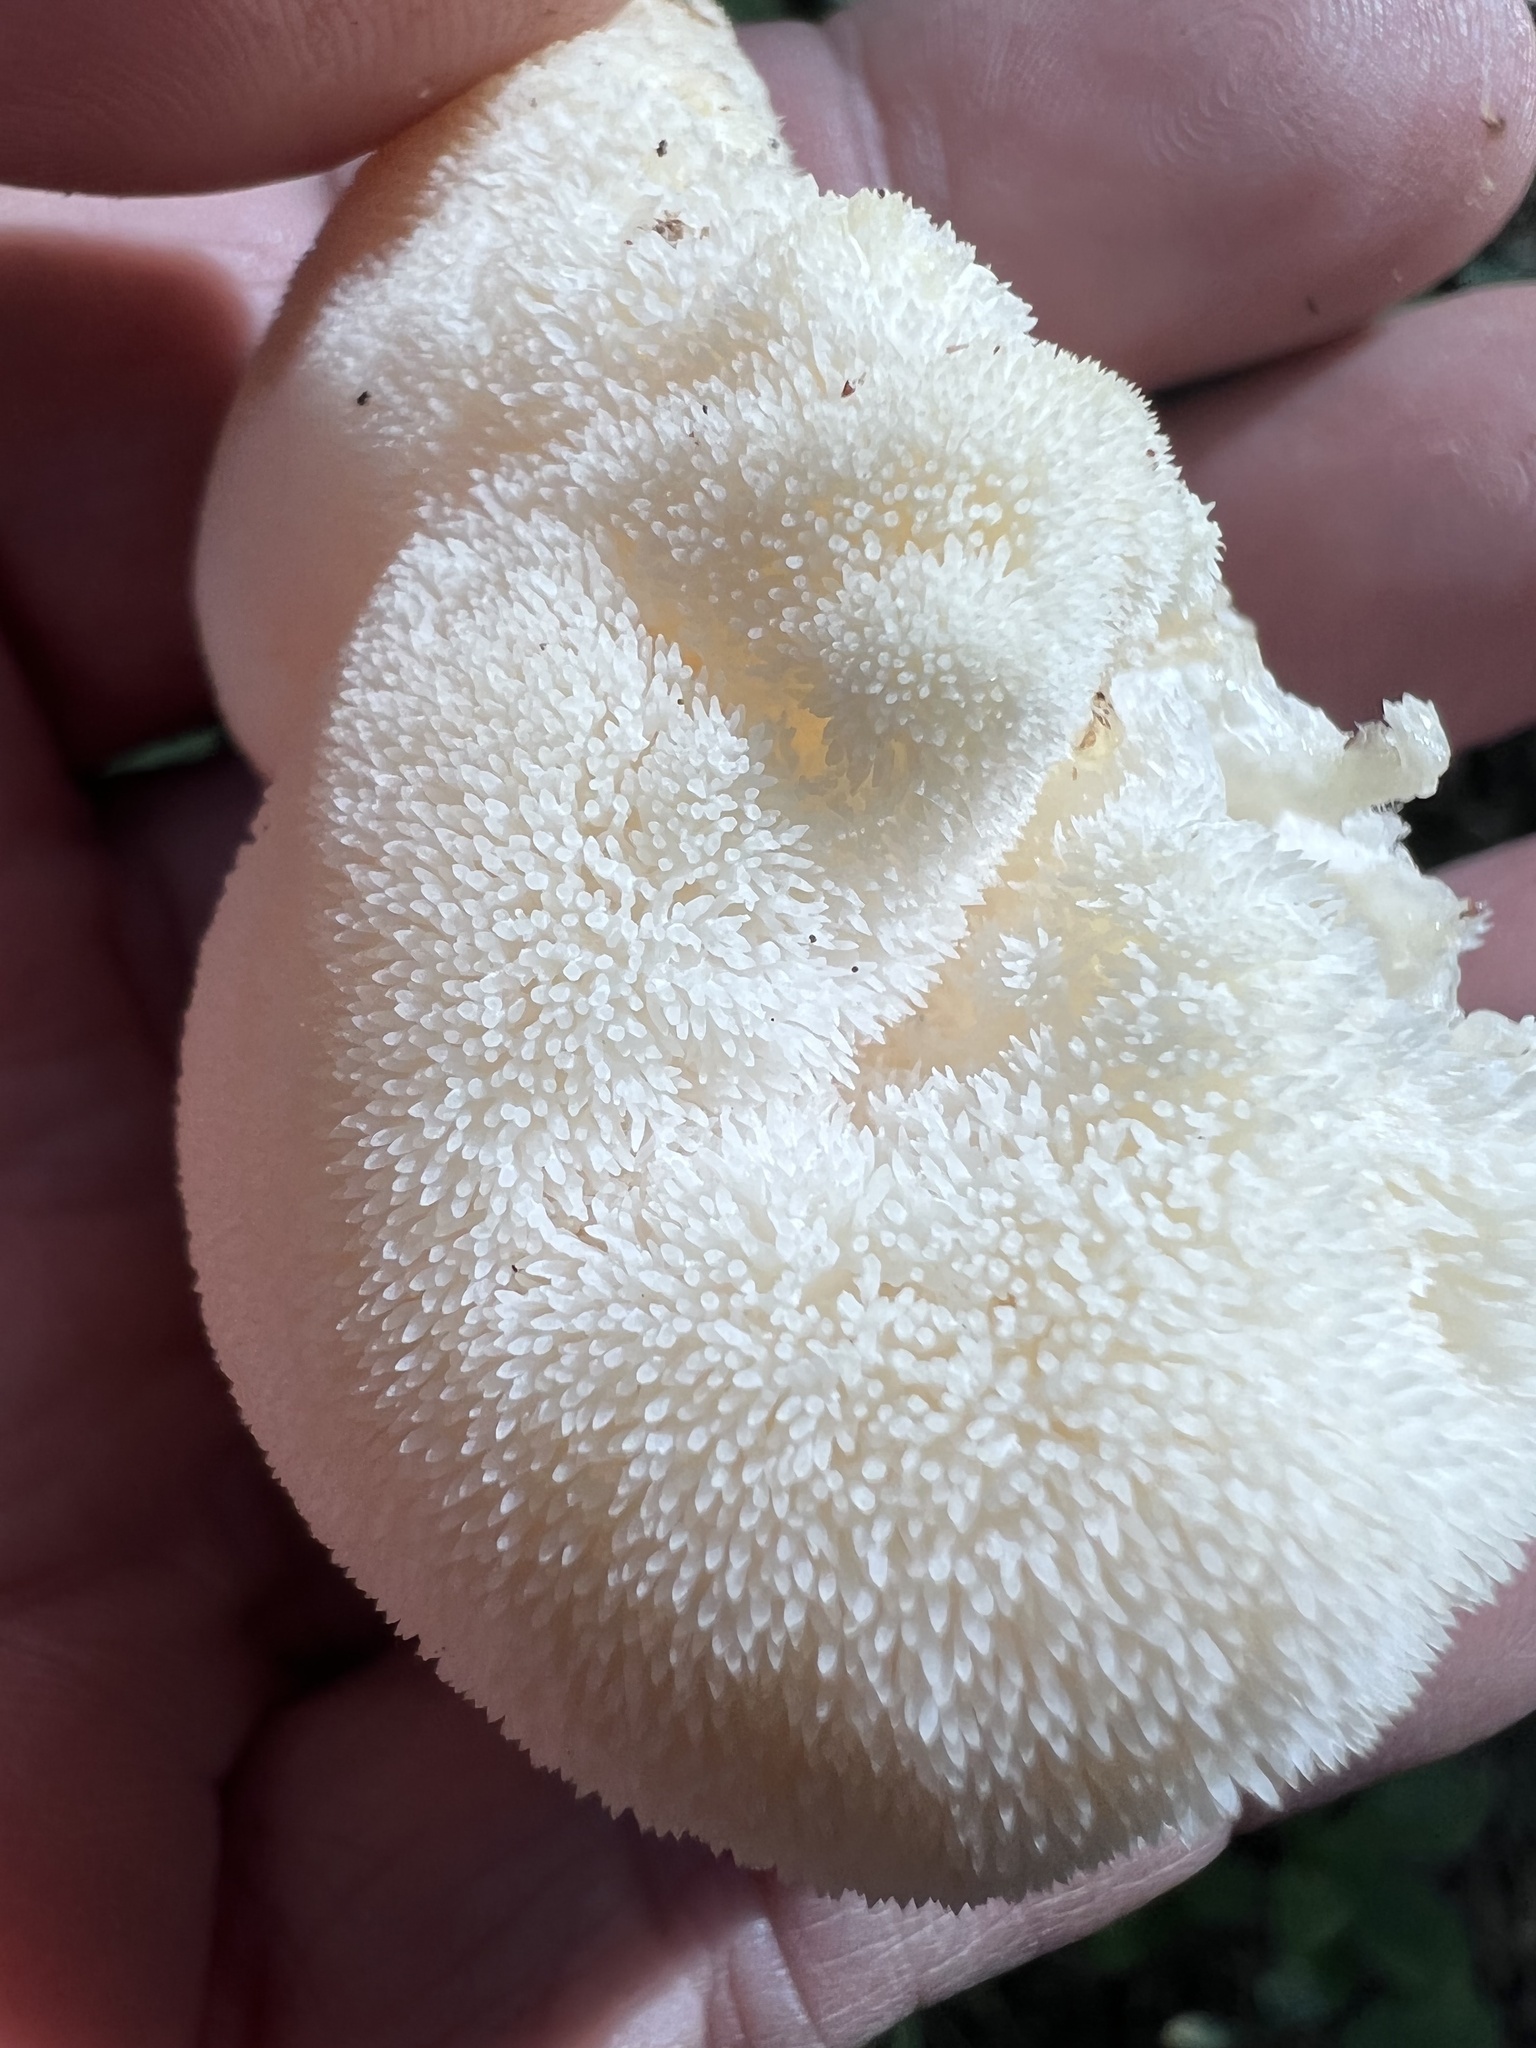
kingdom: Fungi
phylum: Basidiomycota
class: Agaricomycetes
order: Russulales
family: Hericiaceae
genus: Hericium
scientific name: Hericium erinaceus
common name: Bearded tooth
